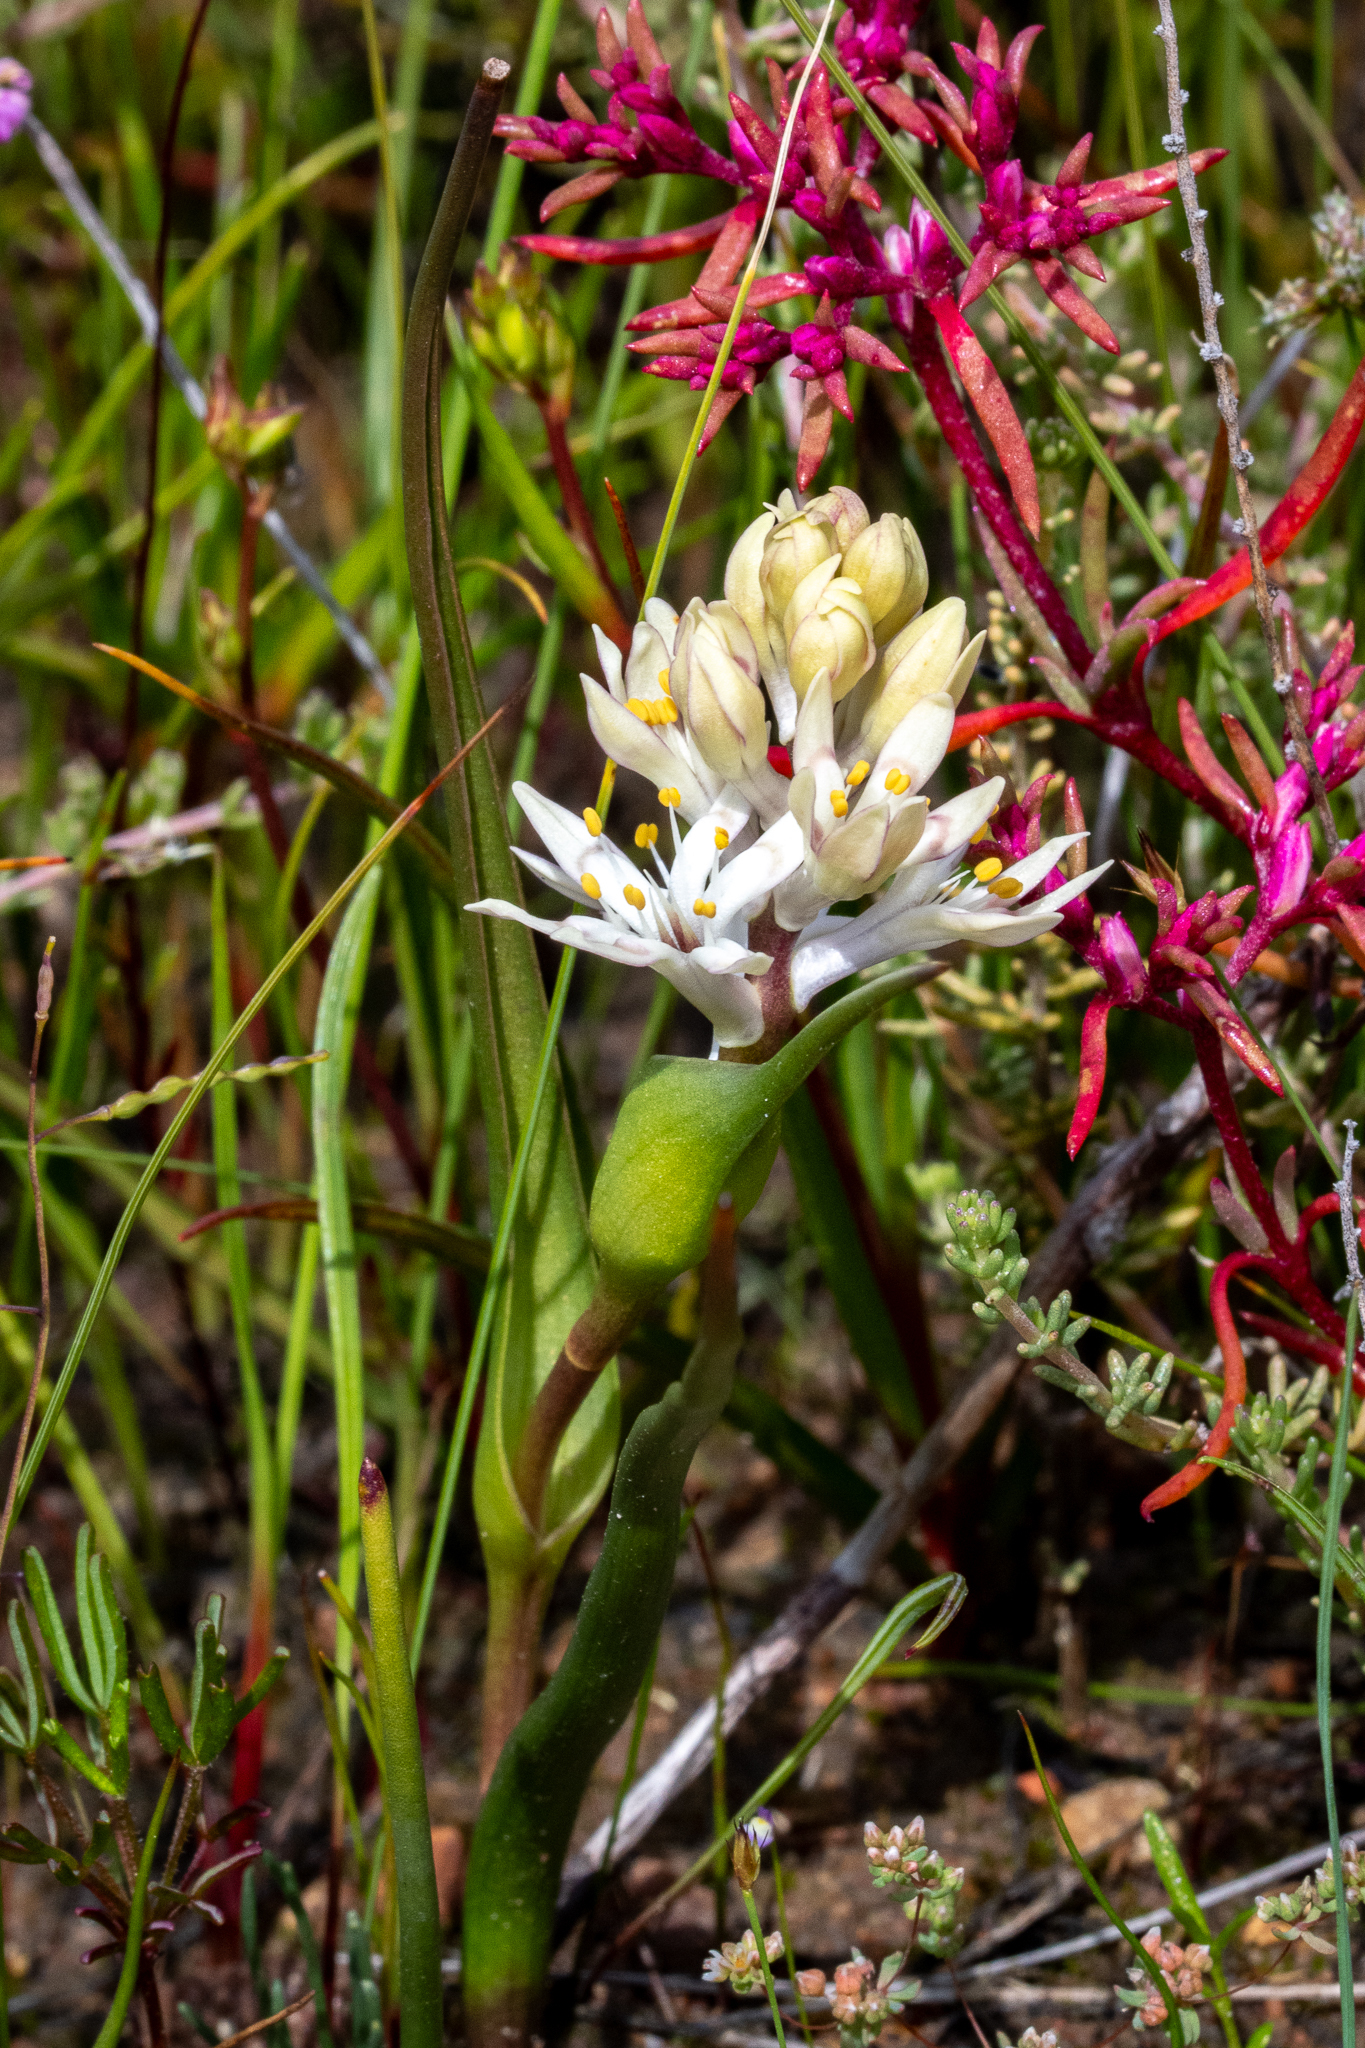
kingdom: Plantae
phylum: Tracheophyta
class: Liliopsida
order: Liliales
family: Colchicaceae
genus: Wurmbea
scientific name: Wurmbea variabilis
